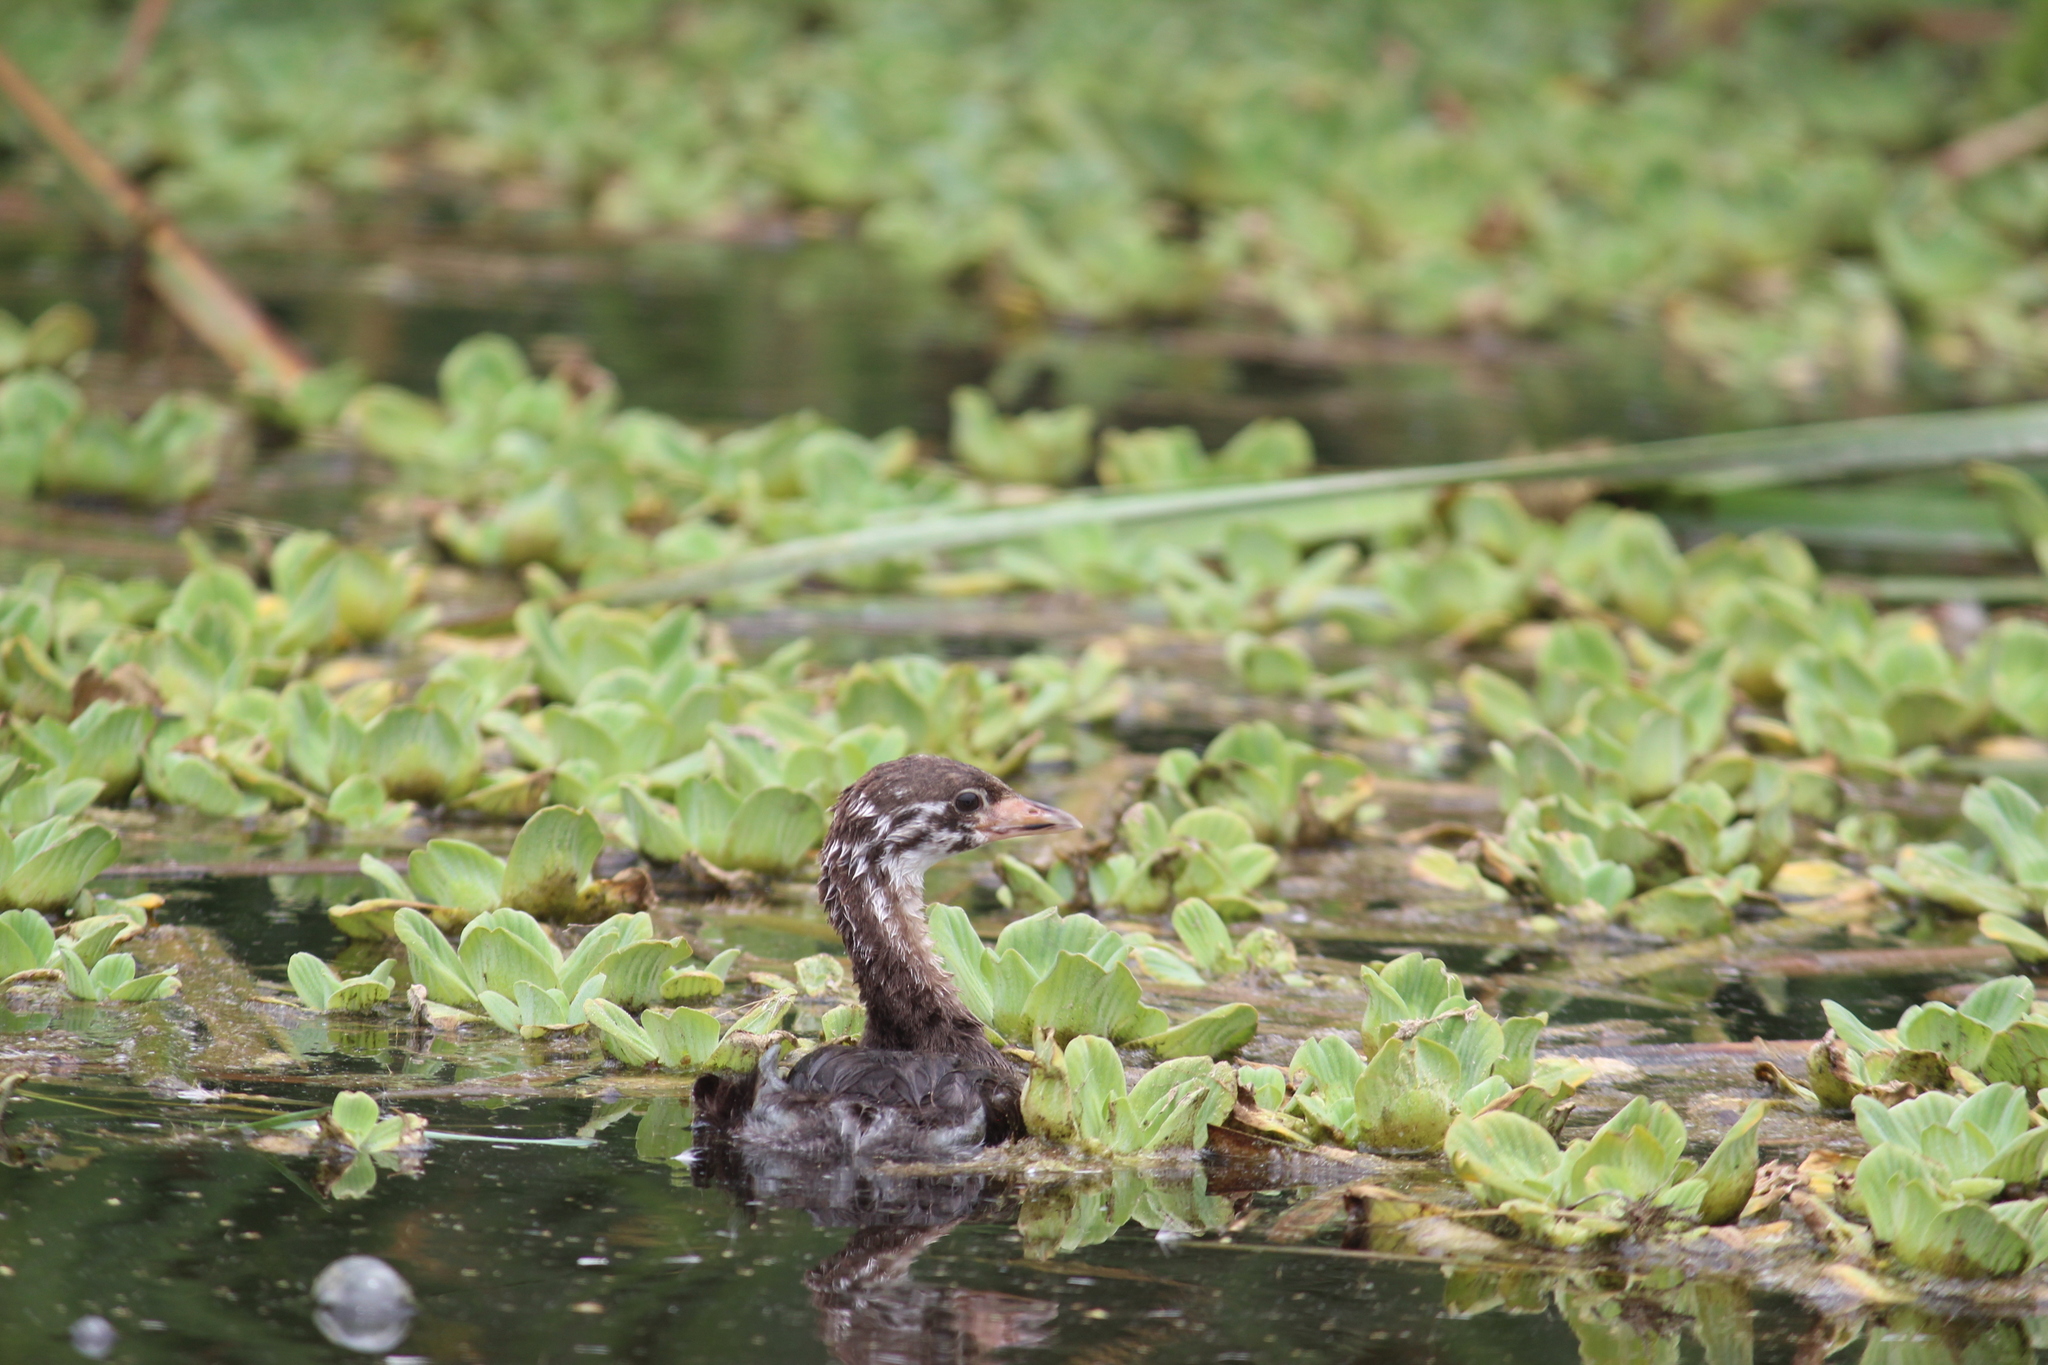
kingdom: Animalia
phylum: Chordata
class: Aves
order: Podicipediformes
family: Podicipedidae
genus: Podilymbus
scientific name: Podilymbus podiceps
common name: Pied-billed grebe
